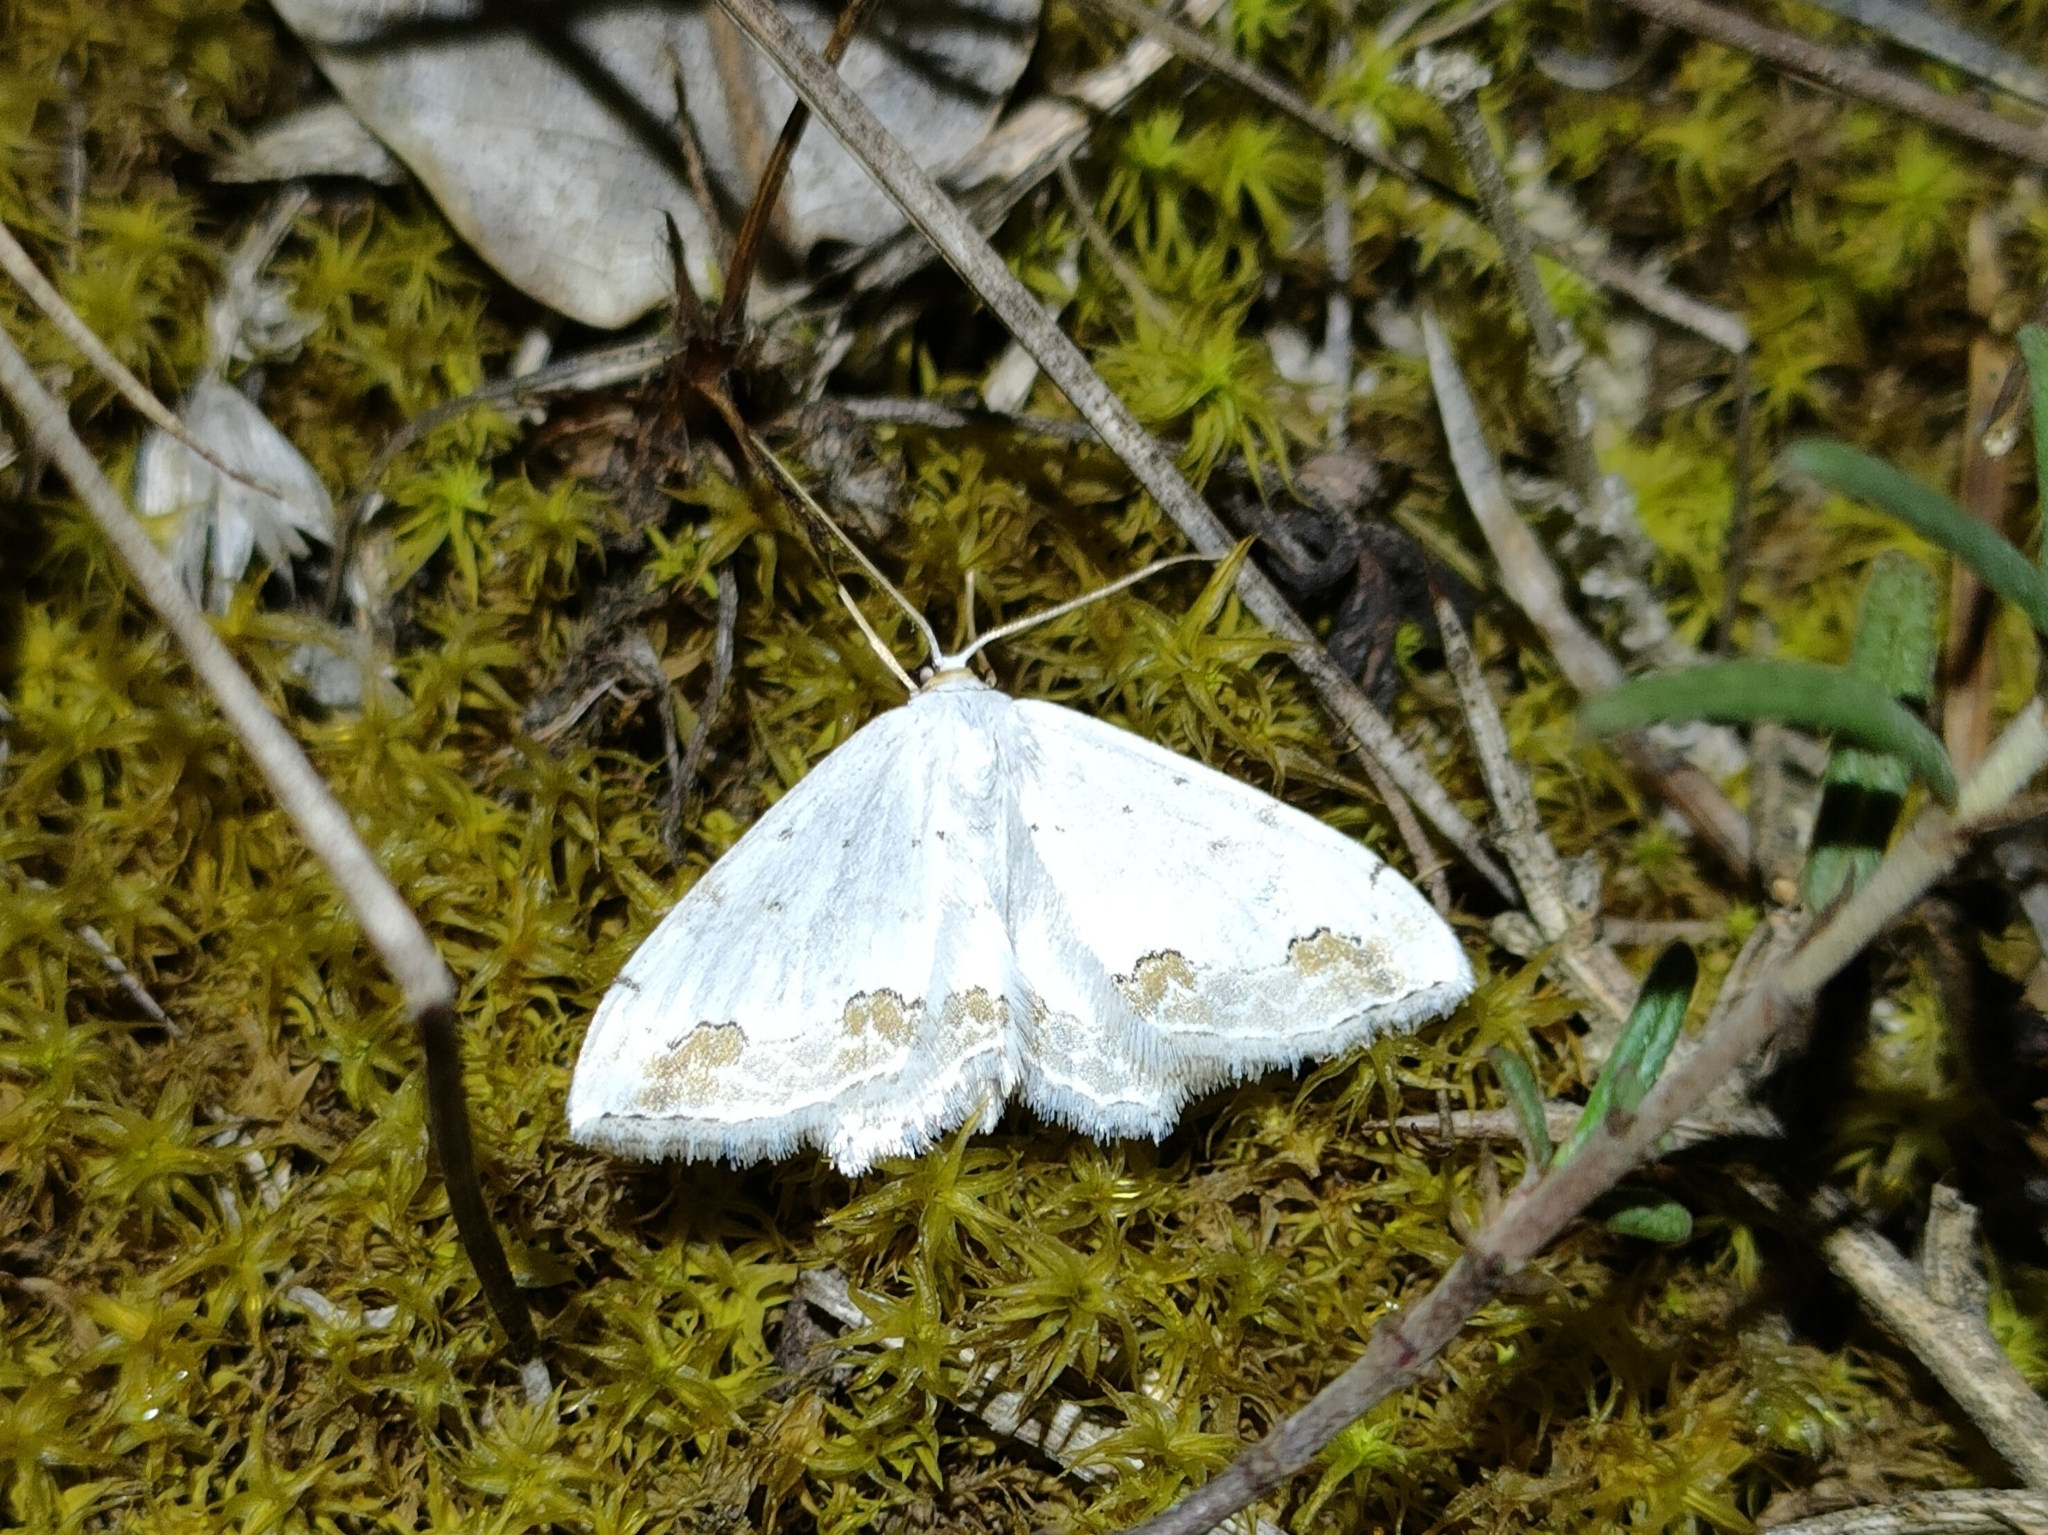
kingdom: Animalia
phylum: Arthropoda
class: Insecta
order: Lepidoptera
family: Geometridae
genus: Scopula
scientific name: Scopula ornata
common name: Lace border
